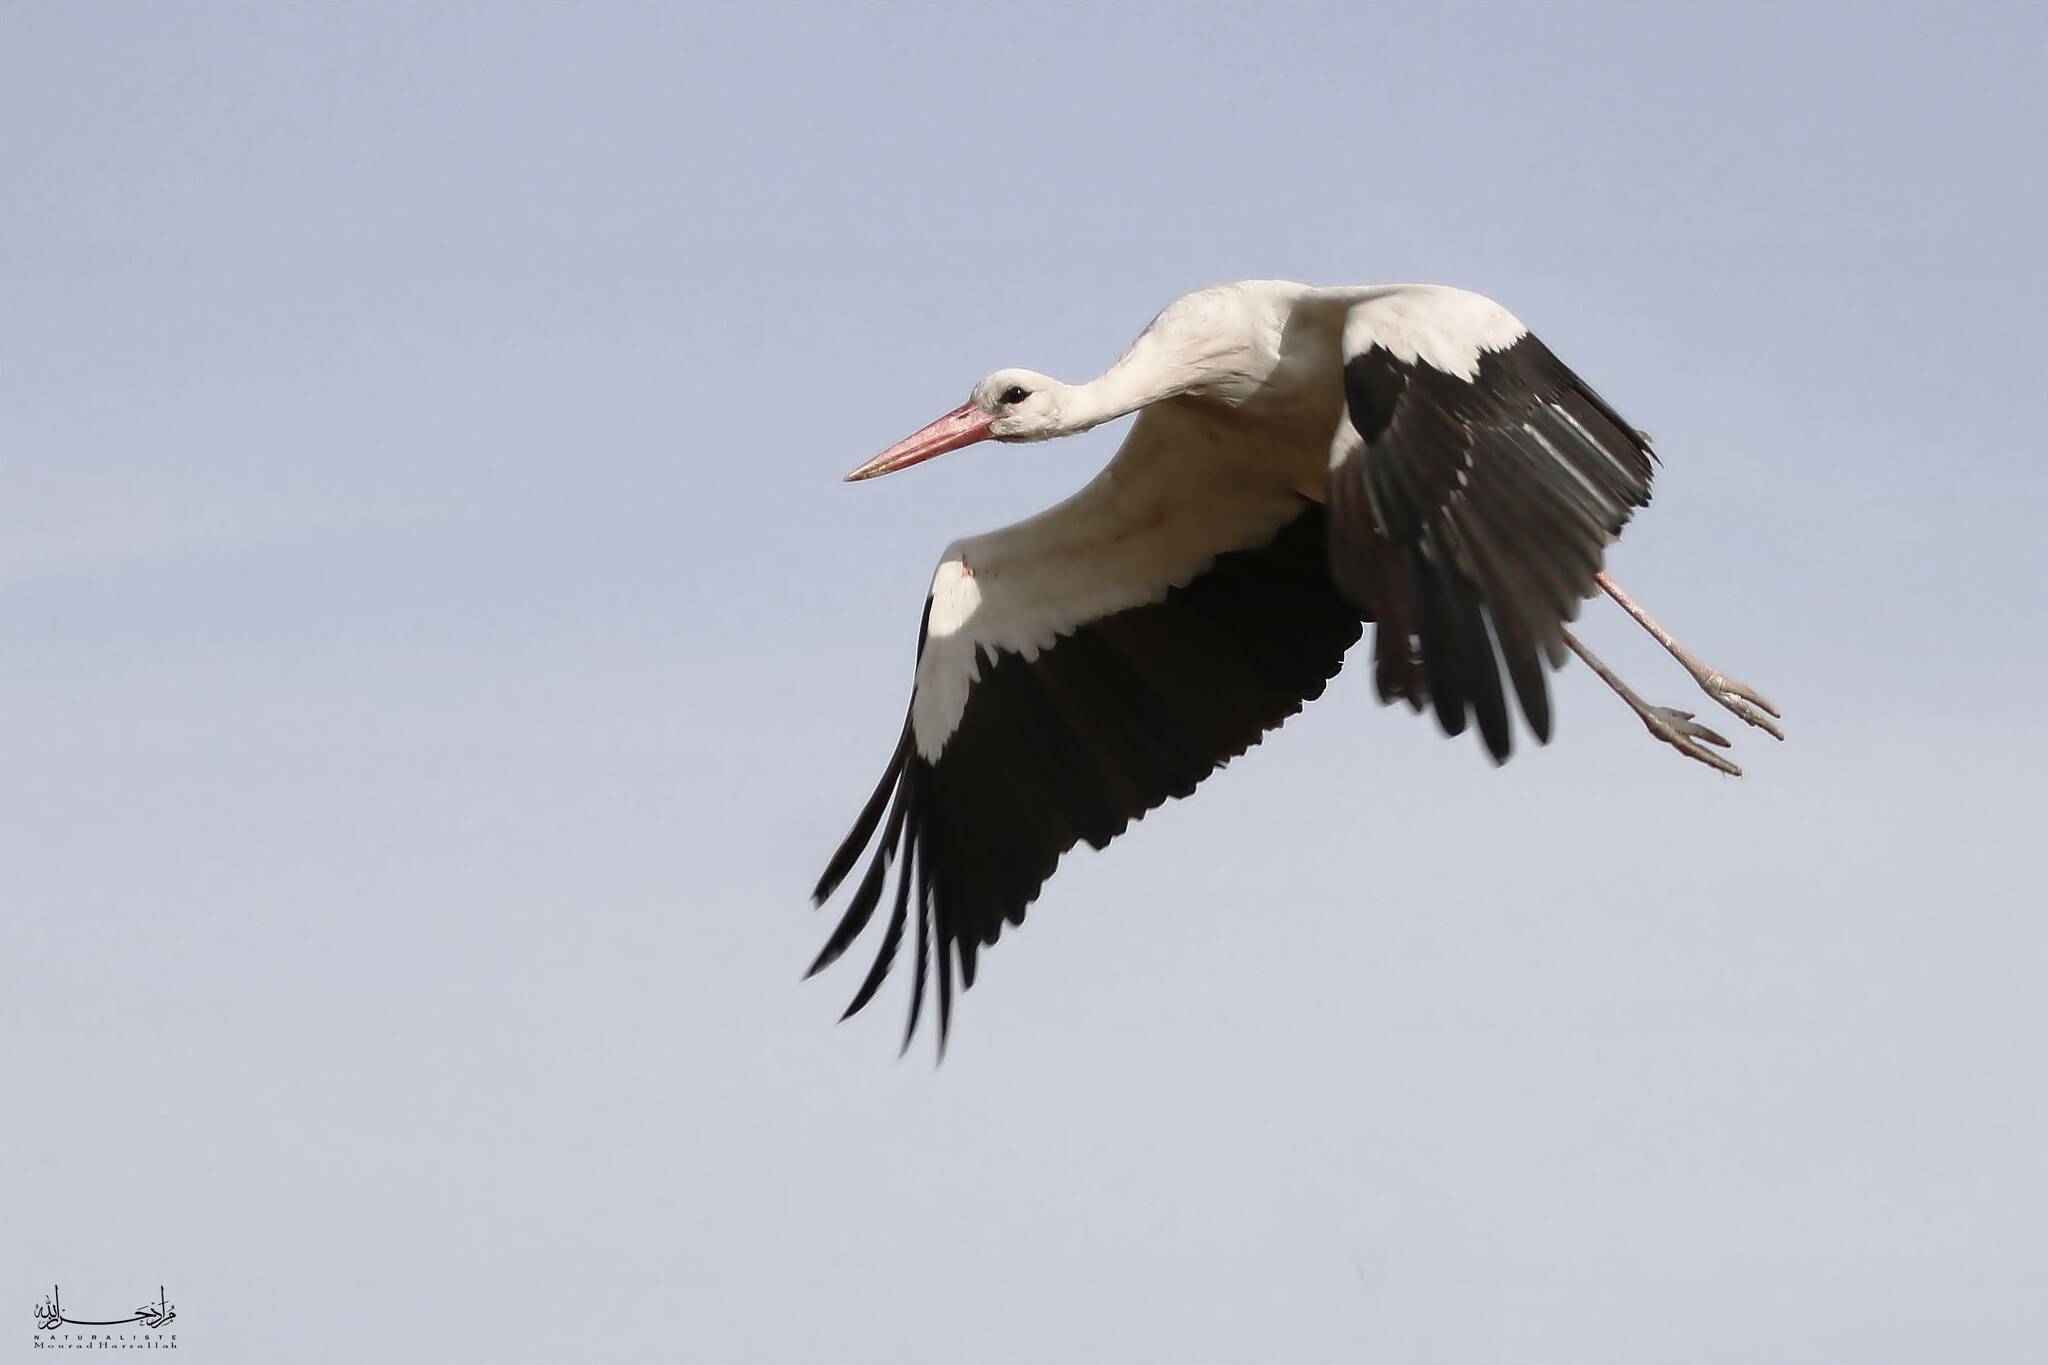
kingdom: Animalia
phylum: Chordata
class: Aves
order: Ciconiiformes
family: Ciconiidae
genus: Ciconia
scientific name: Ciconia ciconia
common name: White stork
